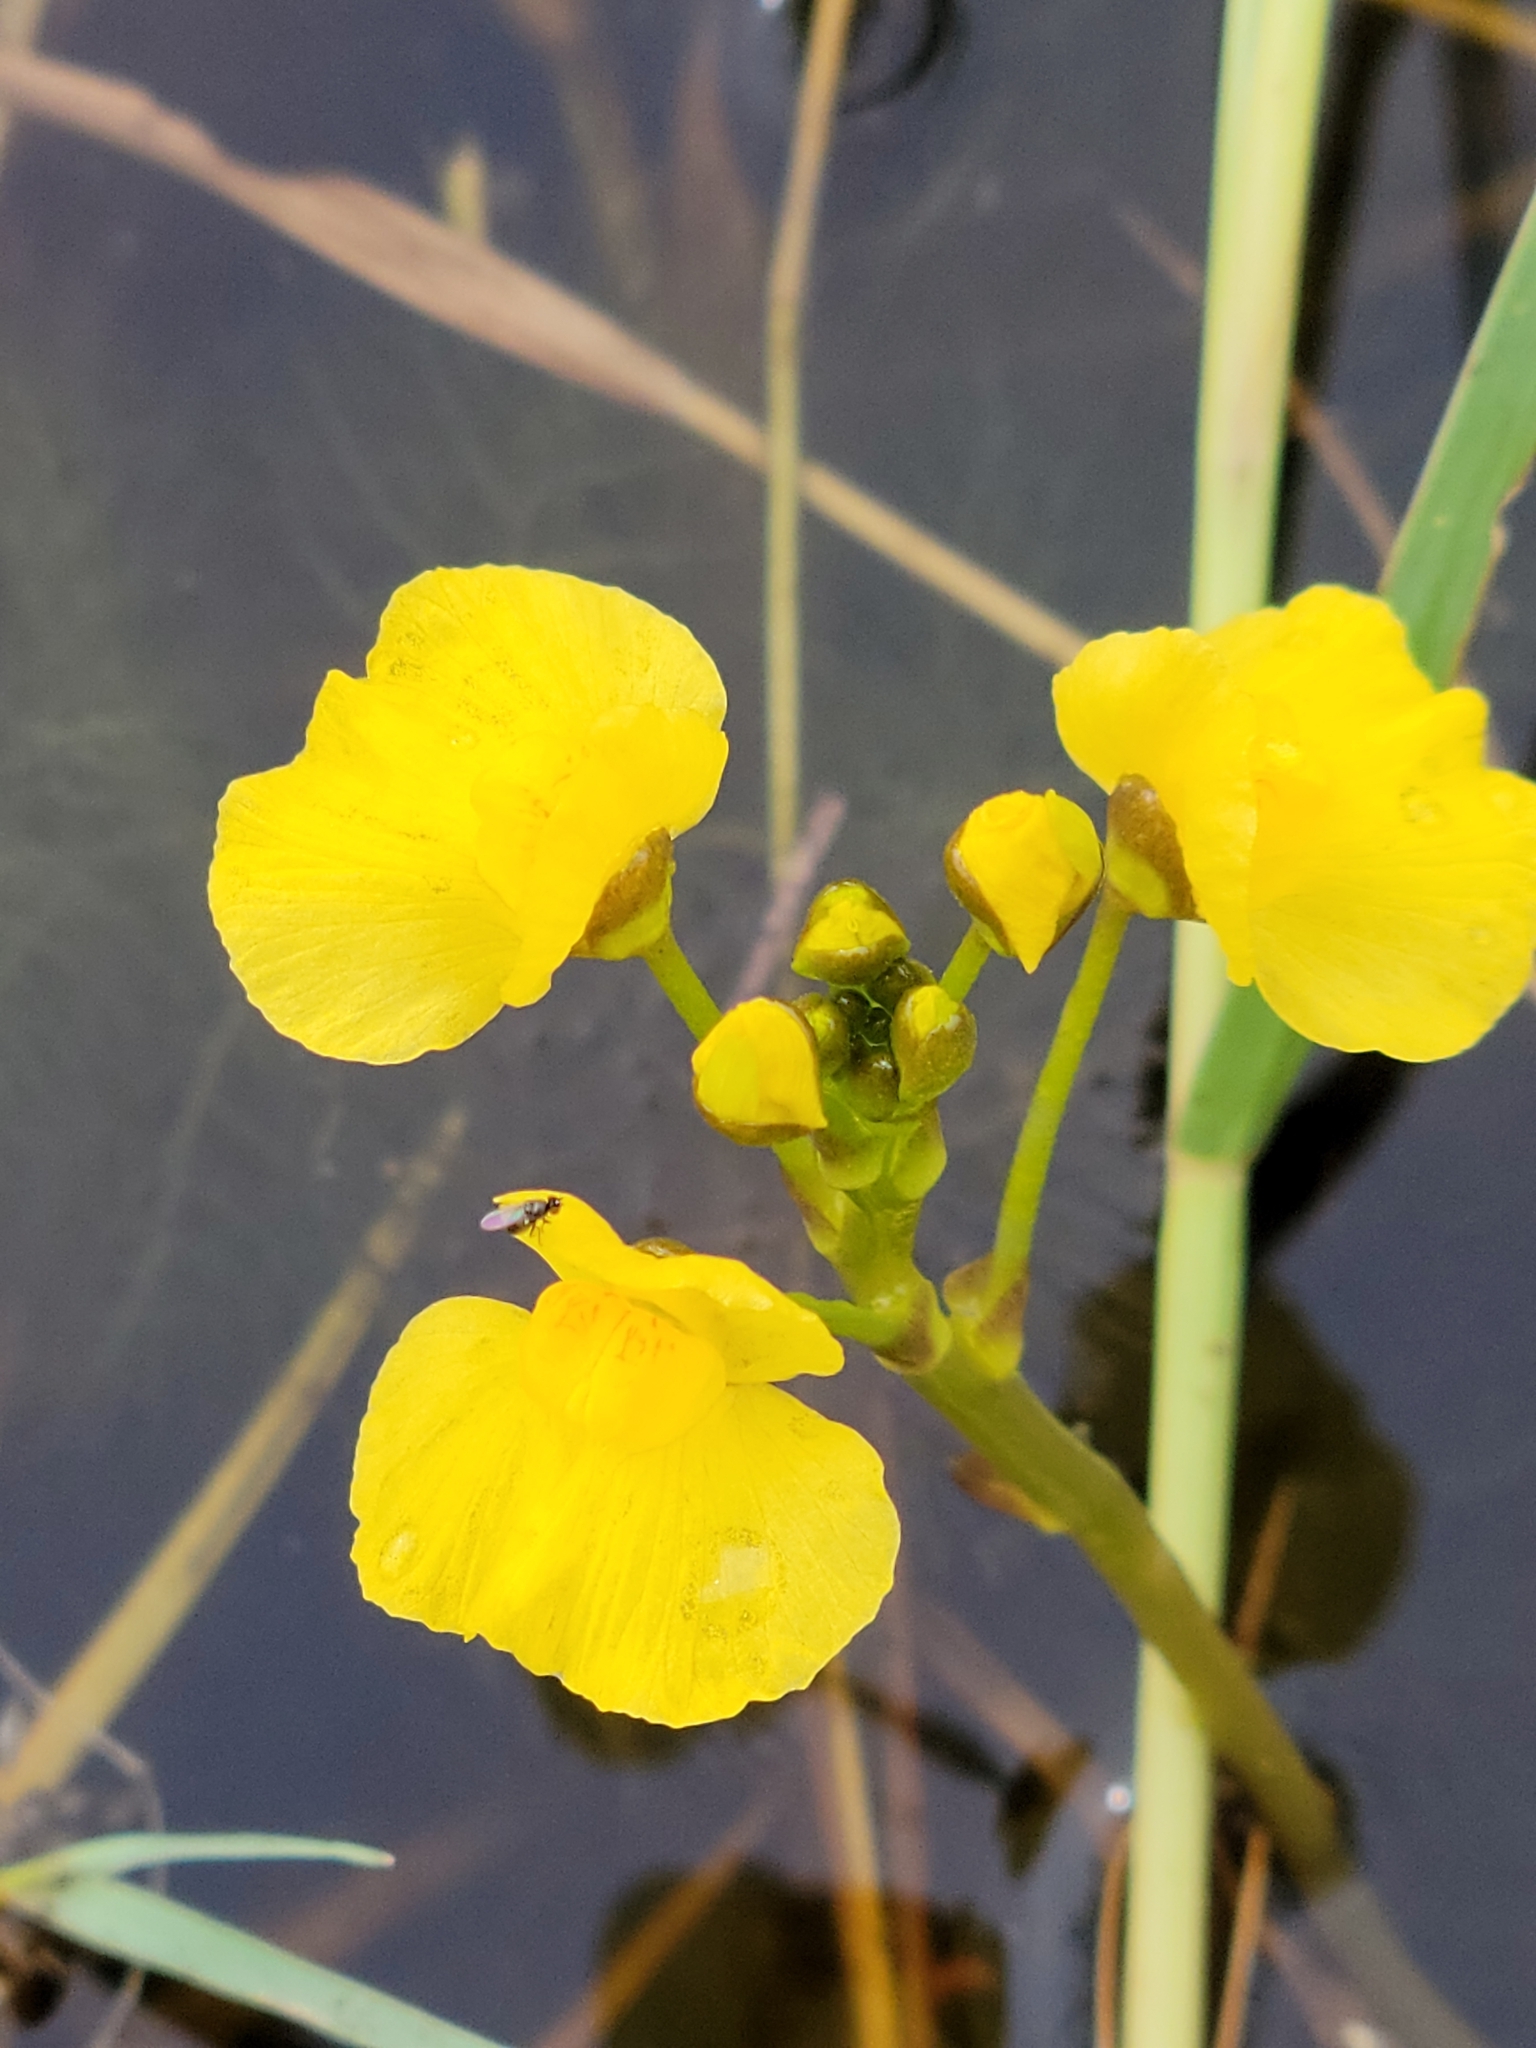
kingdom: Plantae
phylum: Tracheophyta
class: Magnoliopsida
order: Lamiales
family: Lentibulariaceae
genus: Utricularia
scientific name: Utricularia foliosa
